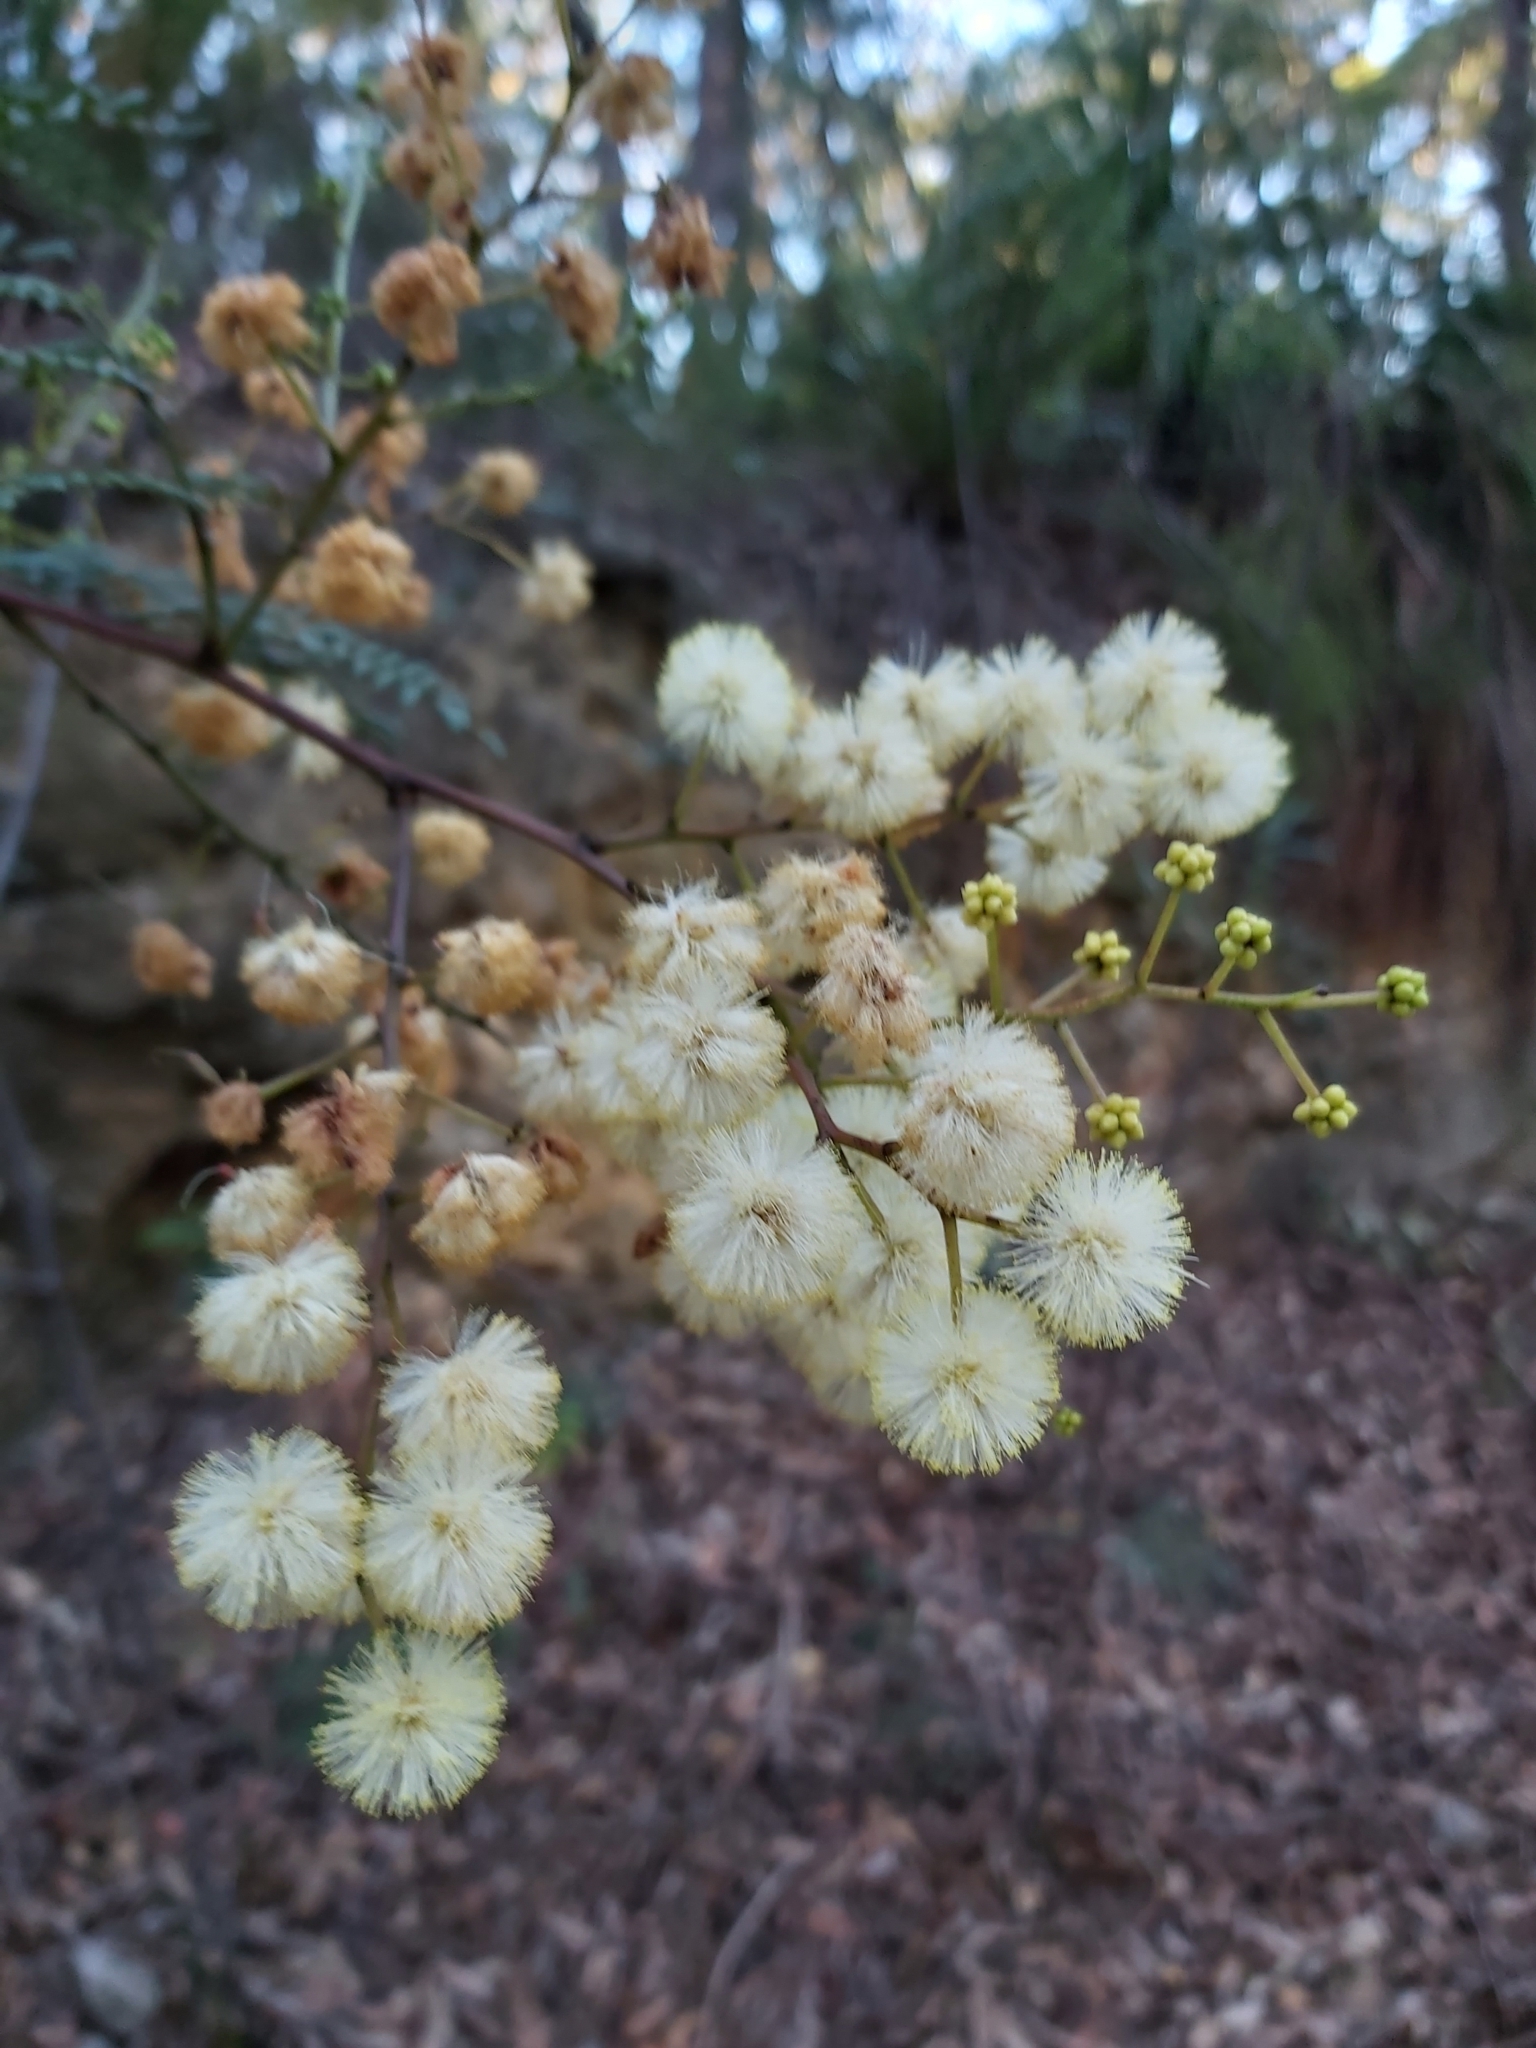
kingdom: Plantae
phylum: Tracheophyta
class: Magnoliopsida
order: Fabales
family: Fabaceae
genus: Acacia
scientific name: Acacia terminalis
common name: Cedar wattle
